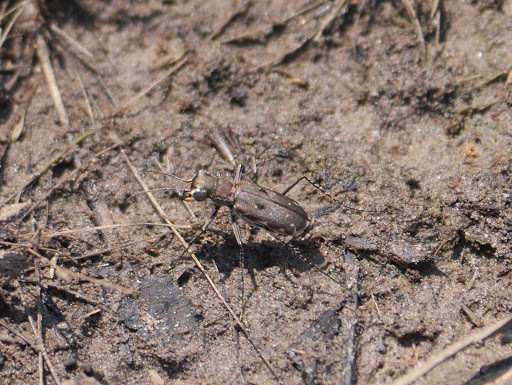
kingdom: Animalia
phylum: Arthropoda
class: Insecta
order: Coleoptera
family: Carabidae
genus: Myriochila
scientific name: Myriochila melancholica
